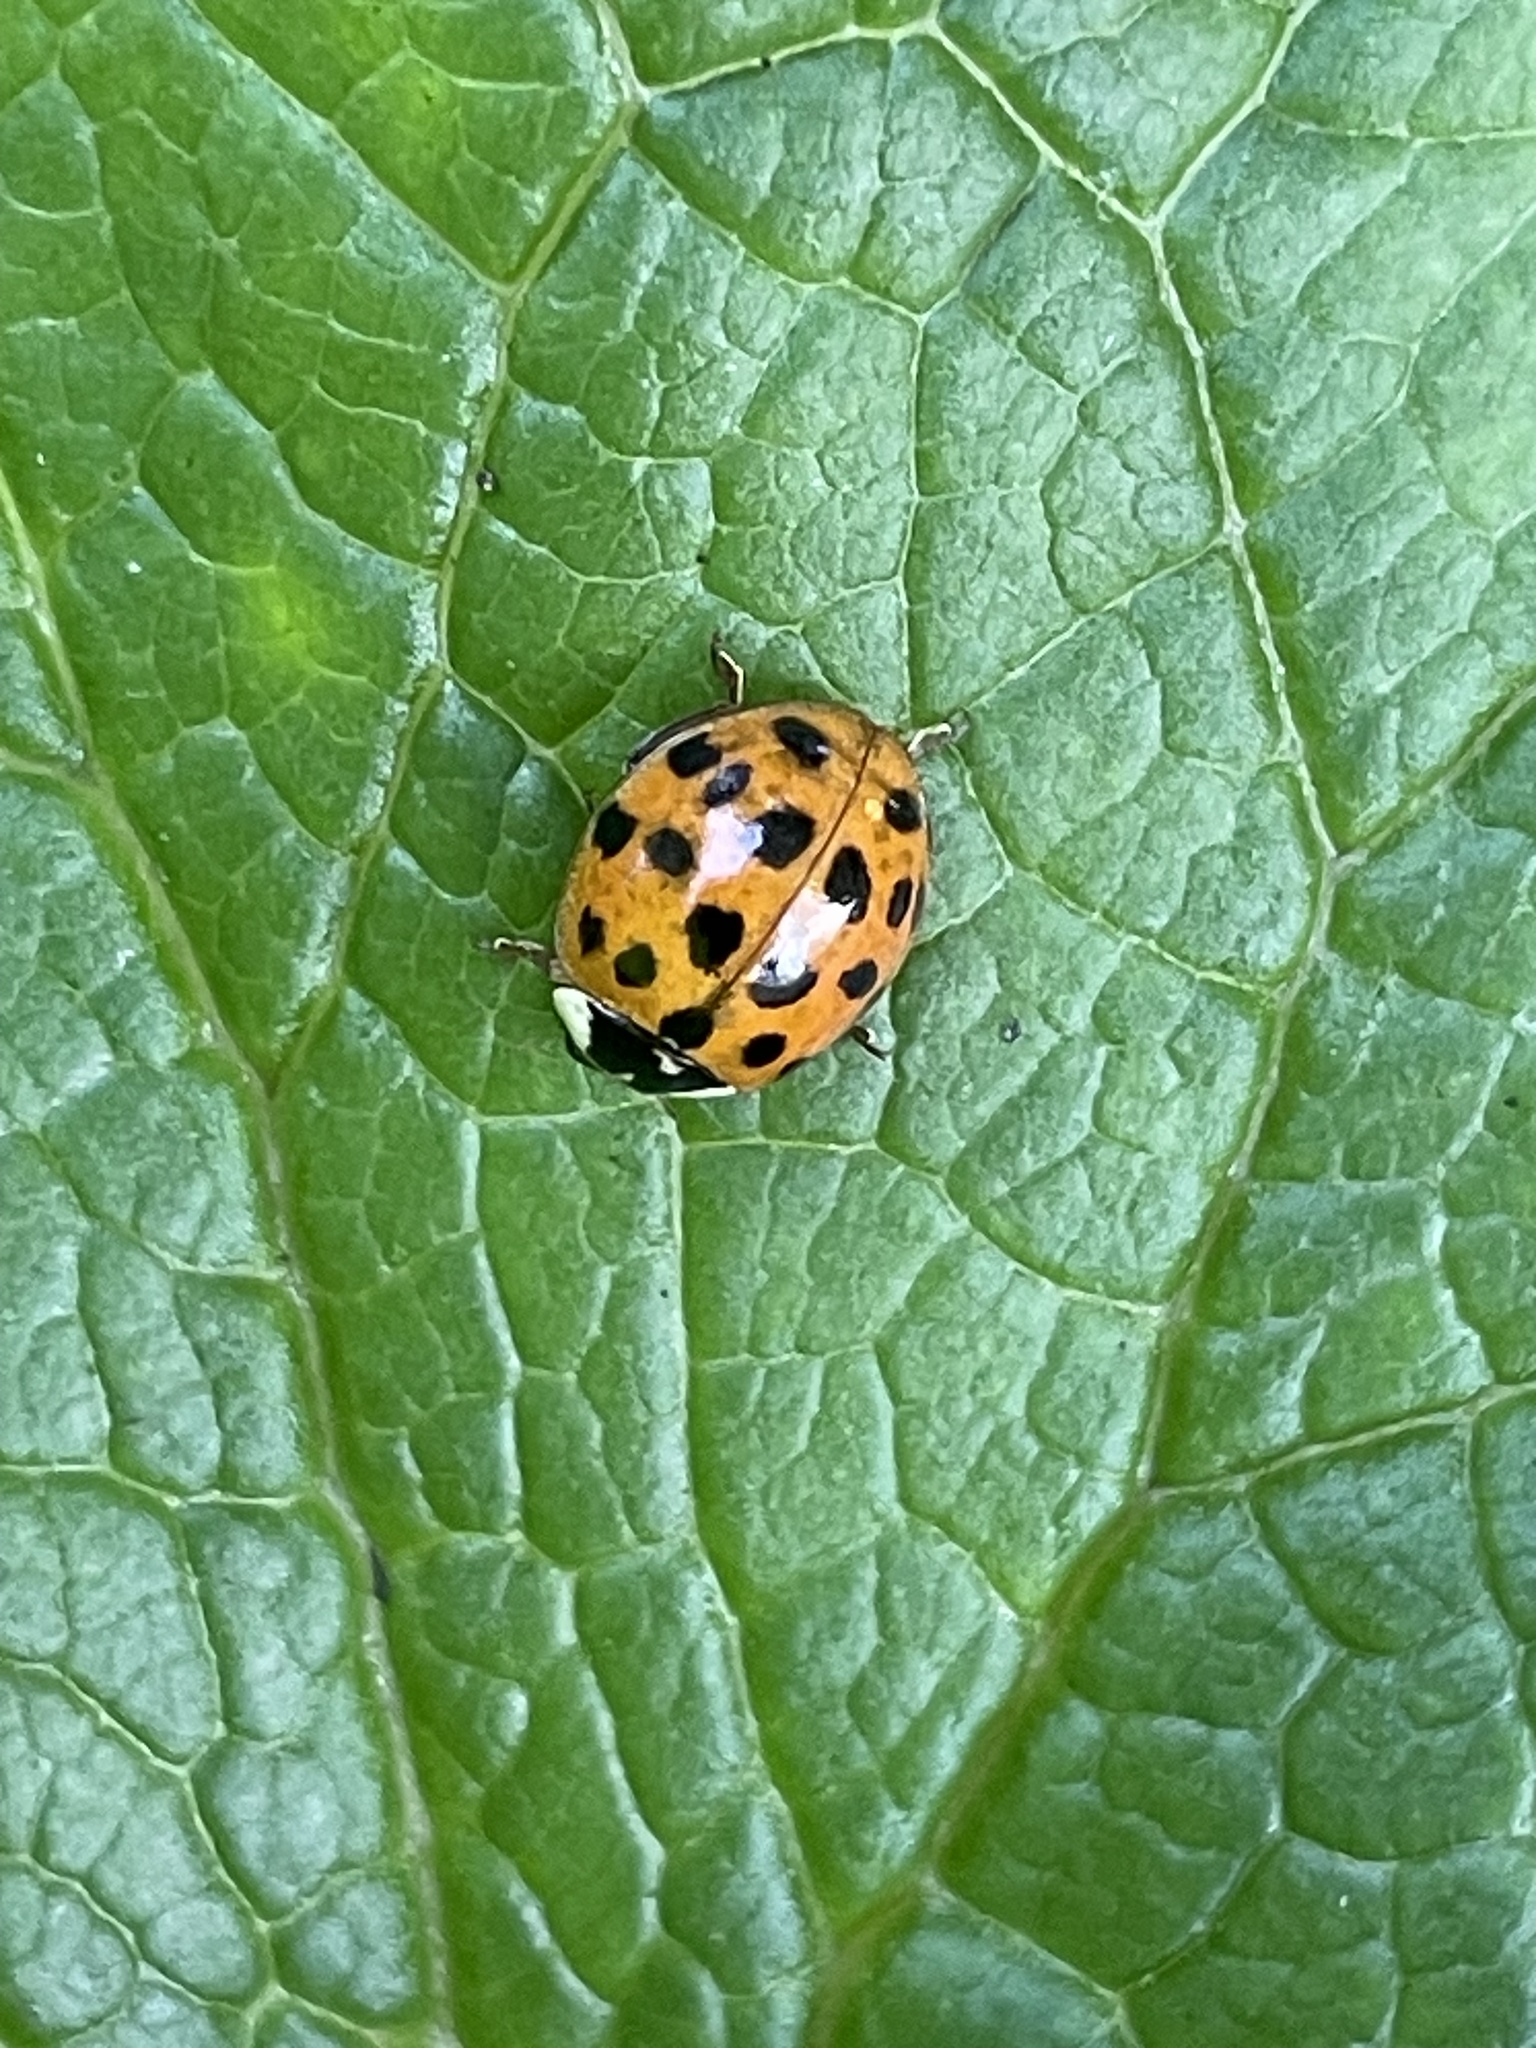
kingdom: Animalia
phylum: Arthropoda
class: Insecta
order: Coleoptera
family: Coccinellidae
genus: Harmonia
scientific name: Harmonia axyridis
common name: Harlequin ladybird
